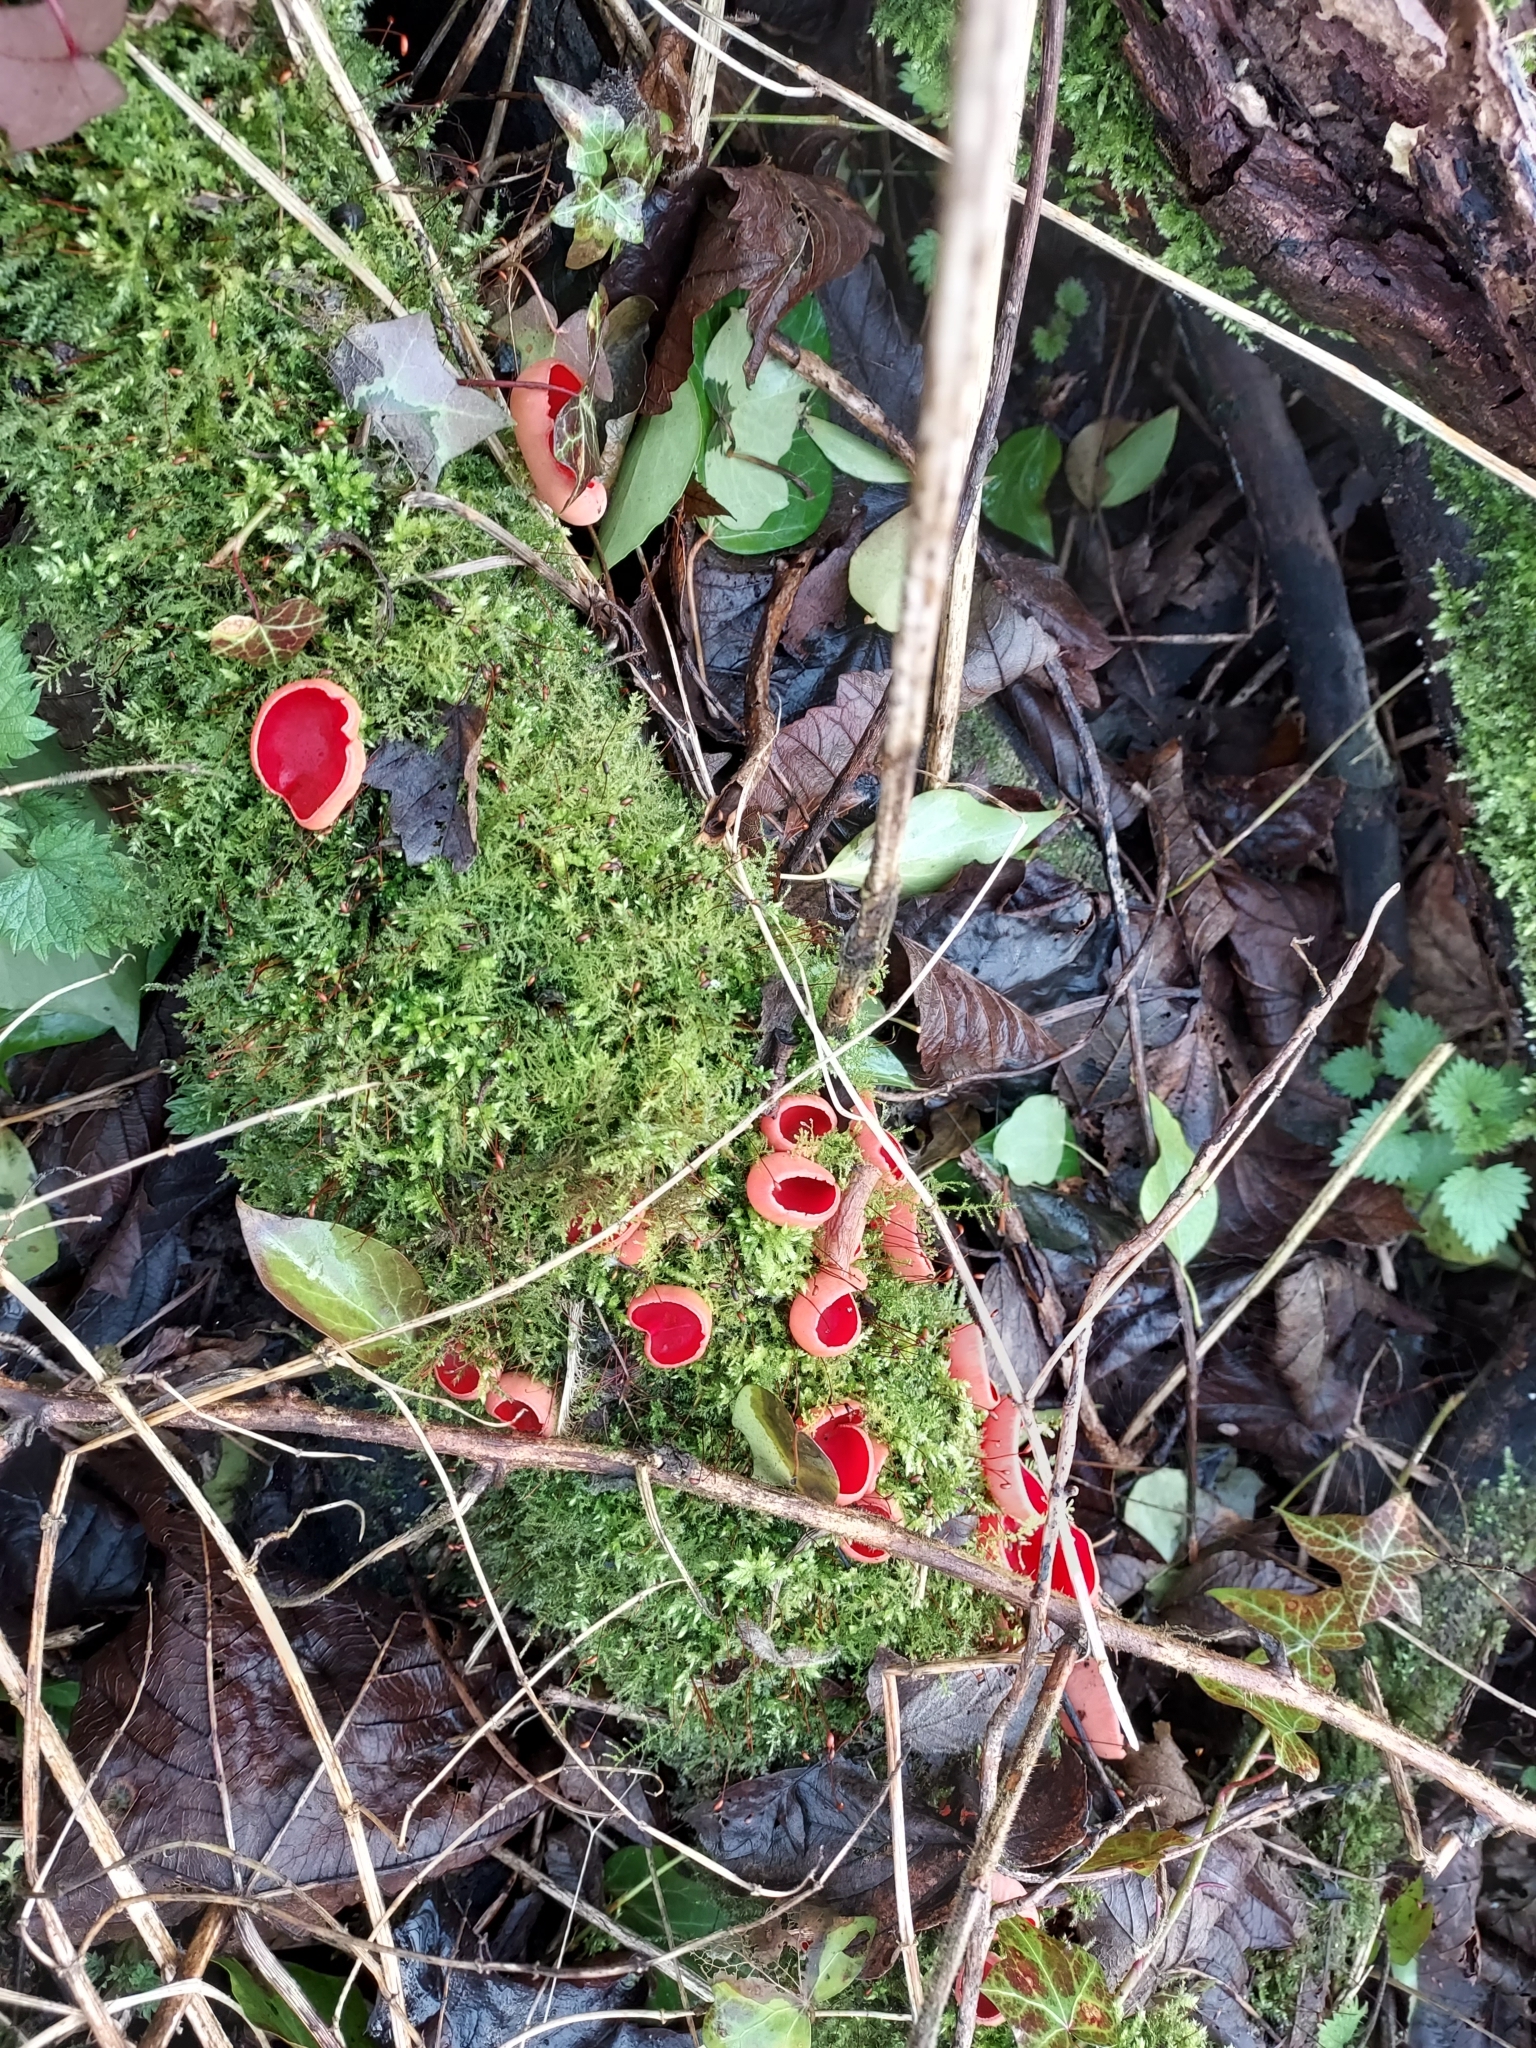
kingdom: Fungi
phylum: Ascomycota
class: Pezizomycetes
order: Pezizales
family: Sarcoscyphaceae
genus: Sarcoscypha
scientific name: Sarcoscypha
